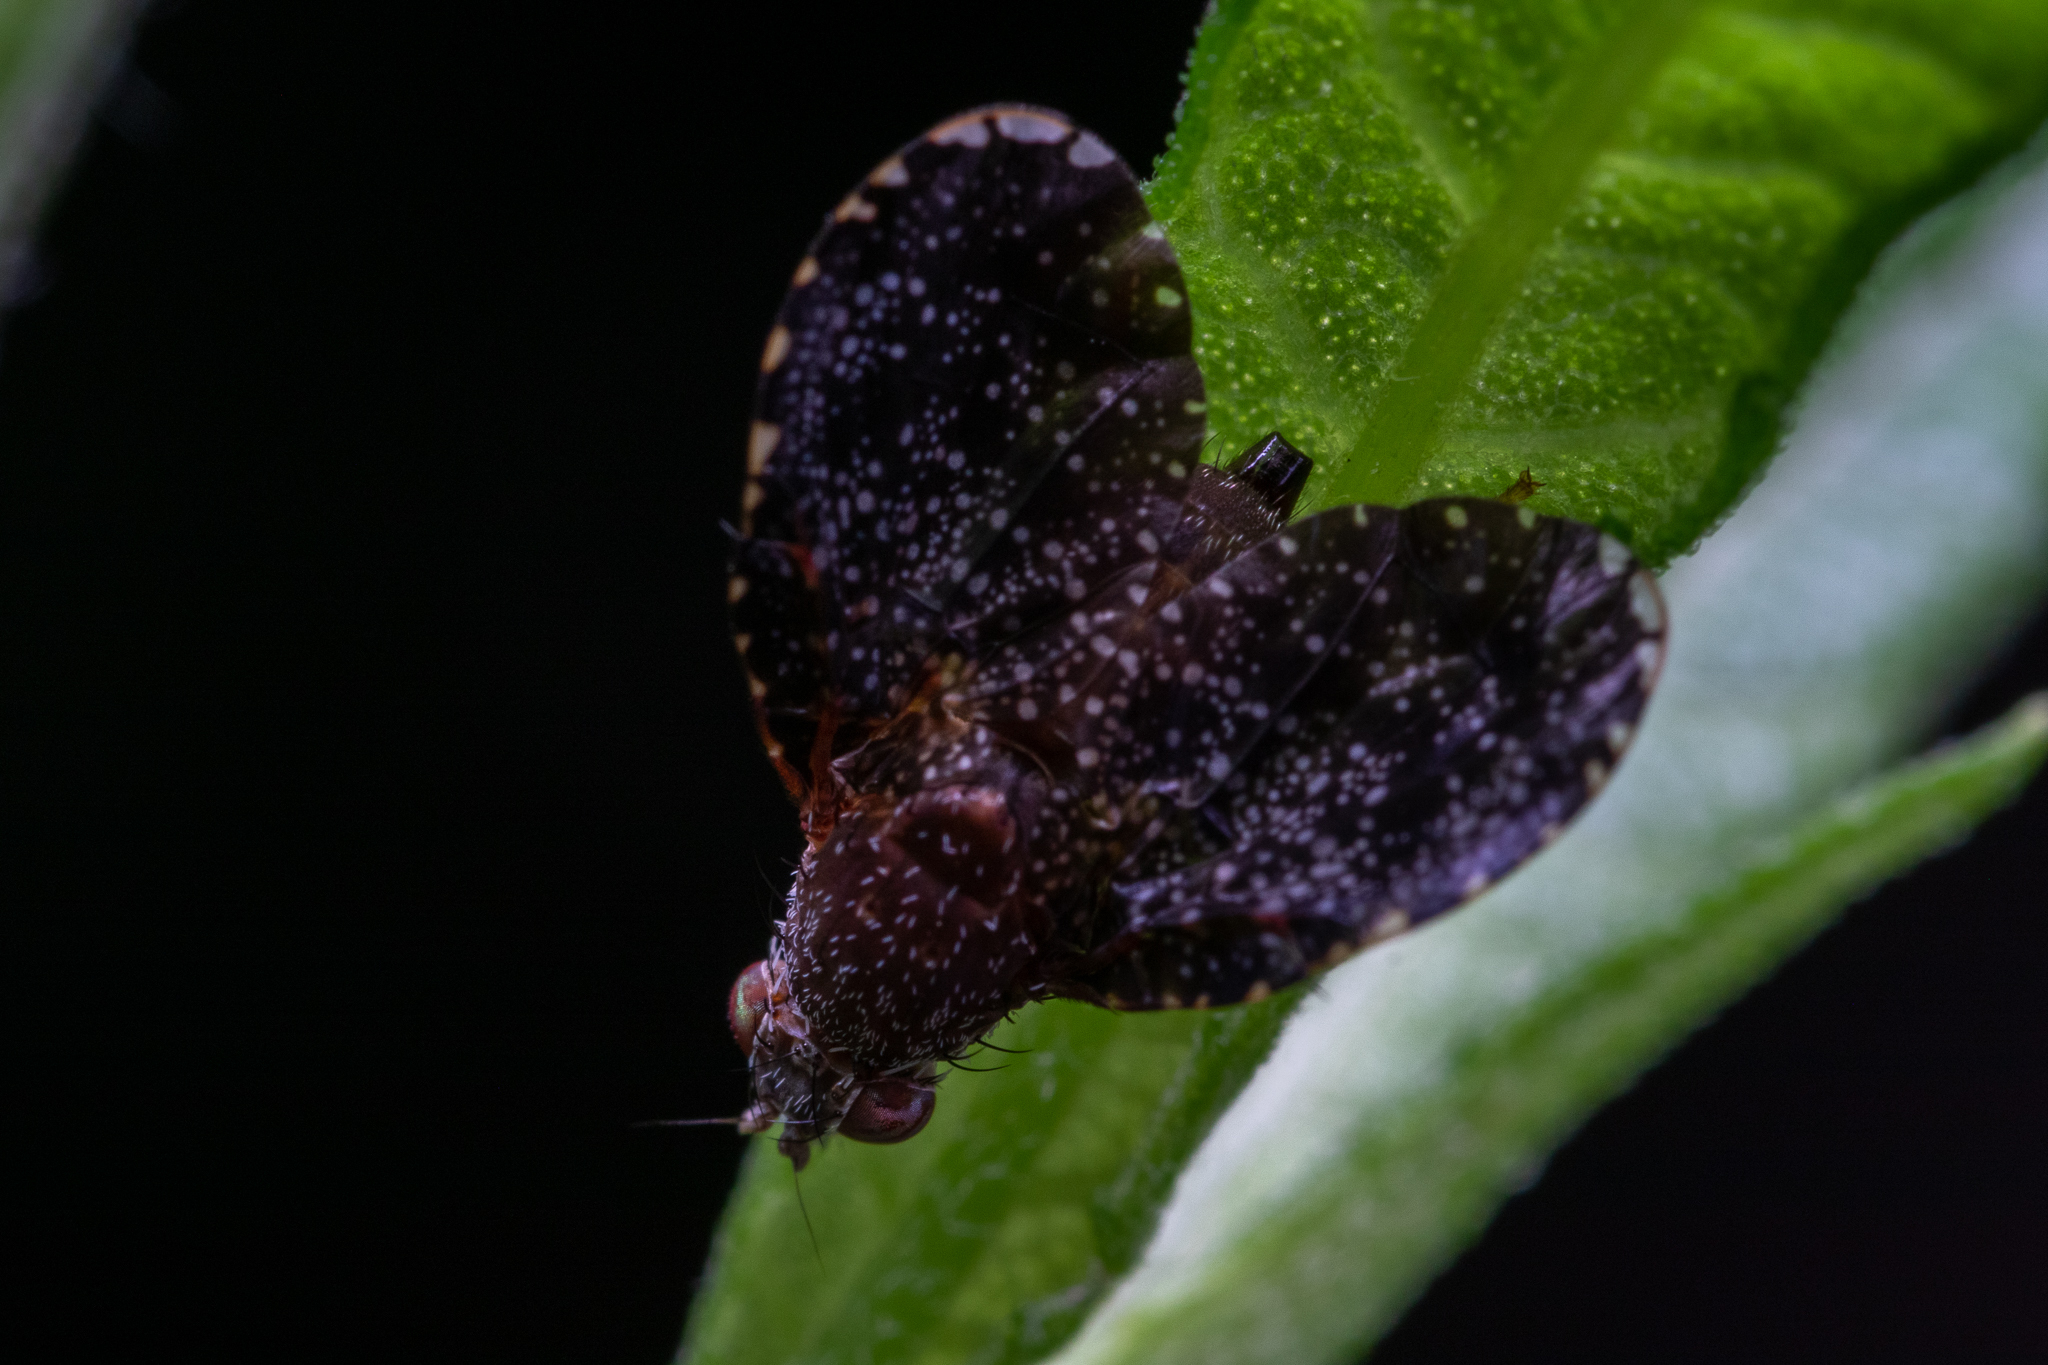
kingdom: Animalia
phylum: Arthropoda
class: Insecta
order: Diptera
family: Tephritidae
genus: Eutreta
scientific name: Eutreta rotundipennis
